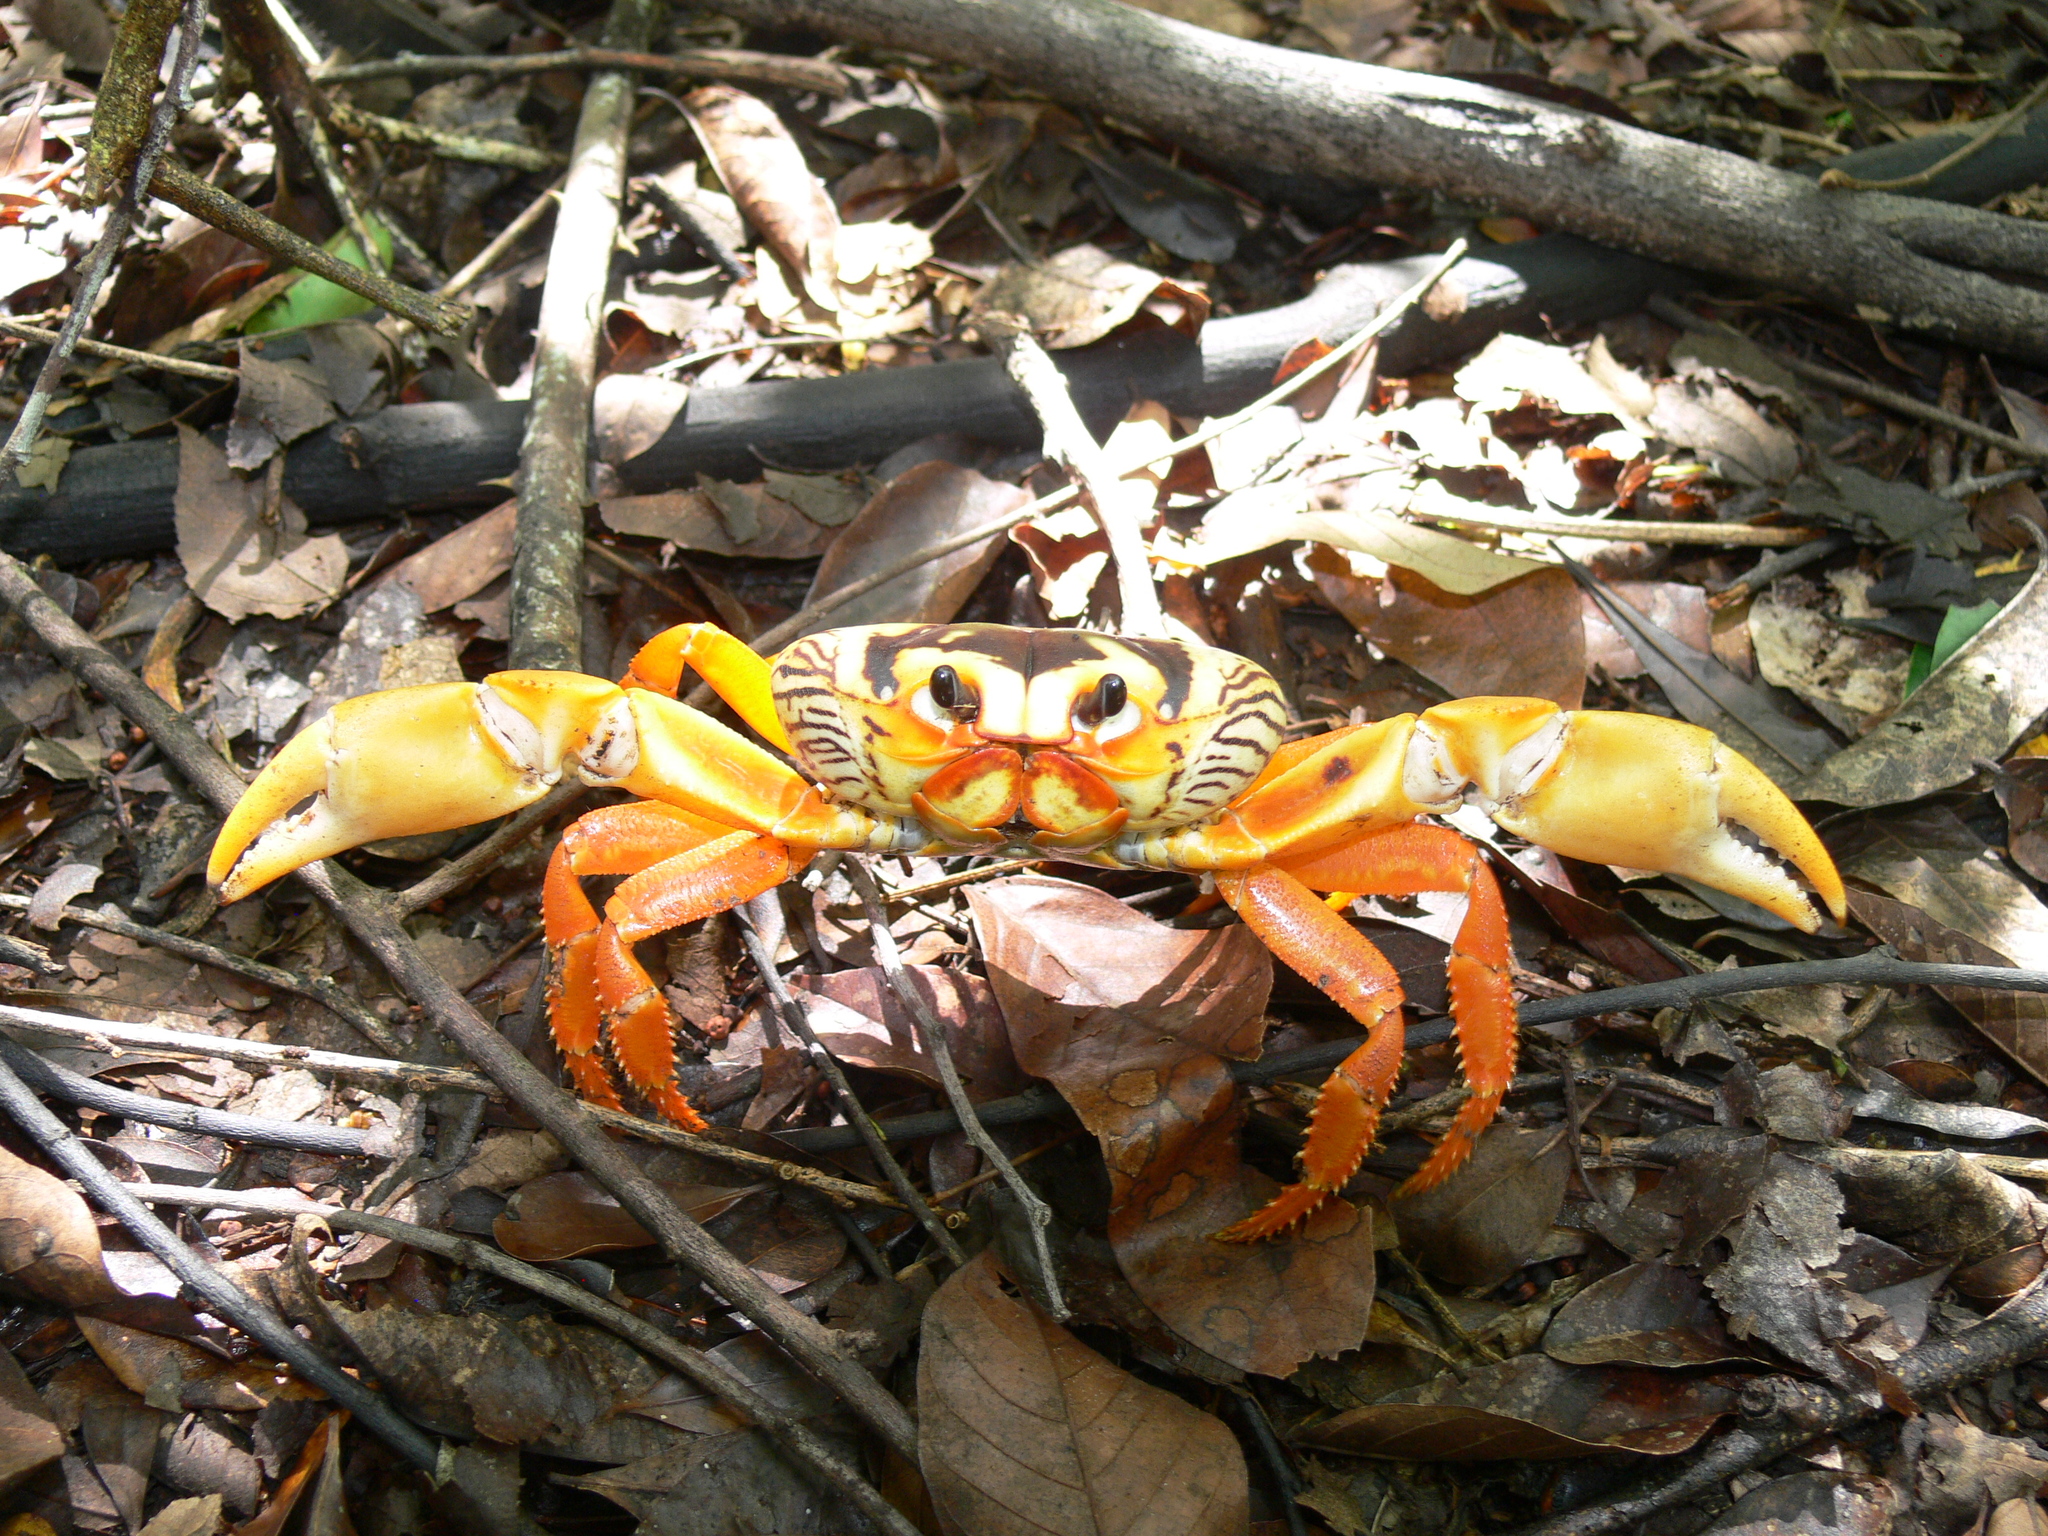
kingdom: Animalia
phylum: Arthropoda
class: Malacostraca
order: Decapoda
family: Gecarcinidae
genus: Gecarcinus
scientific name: Gecarcinus ruricola
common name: Black land crab
